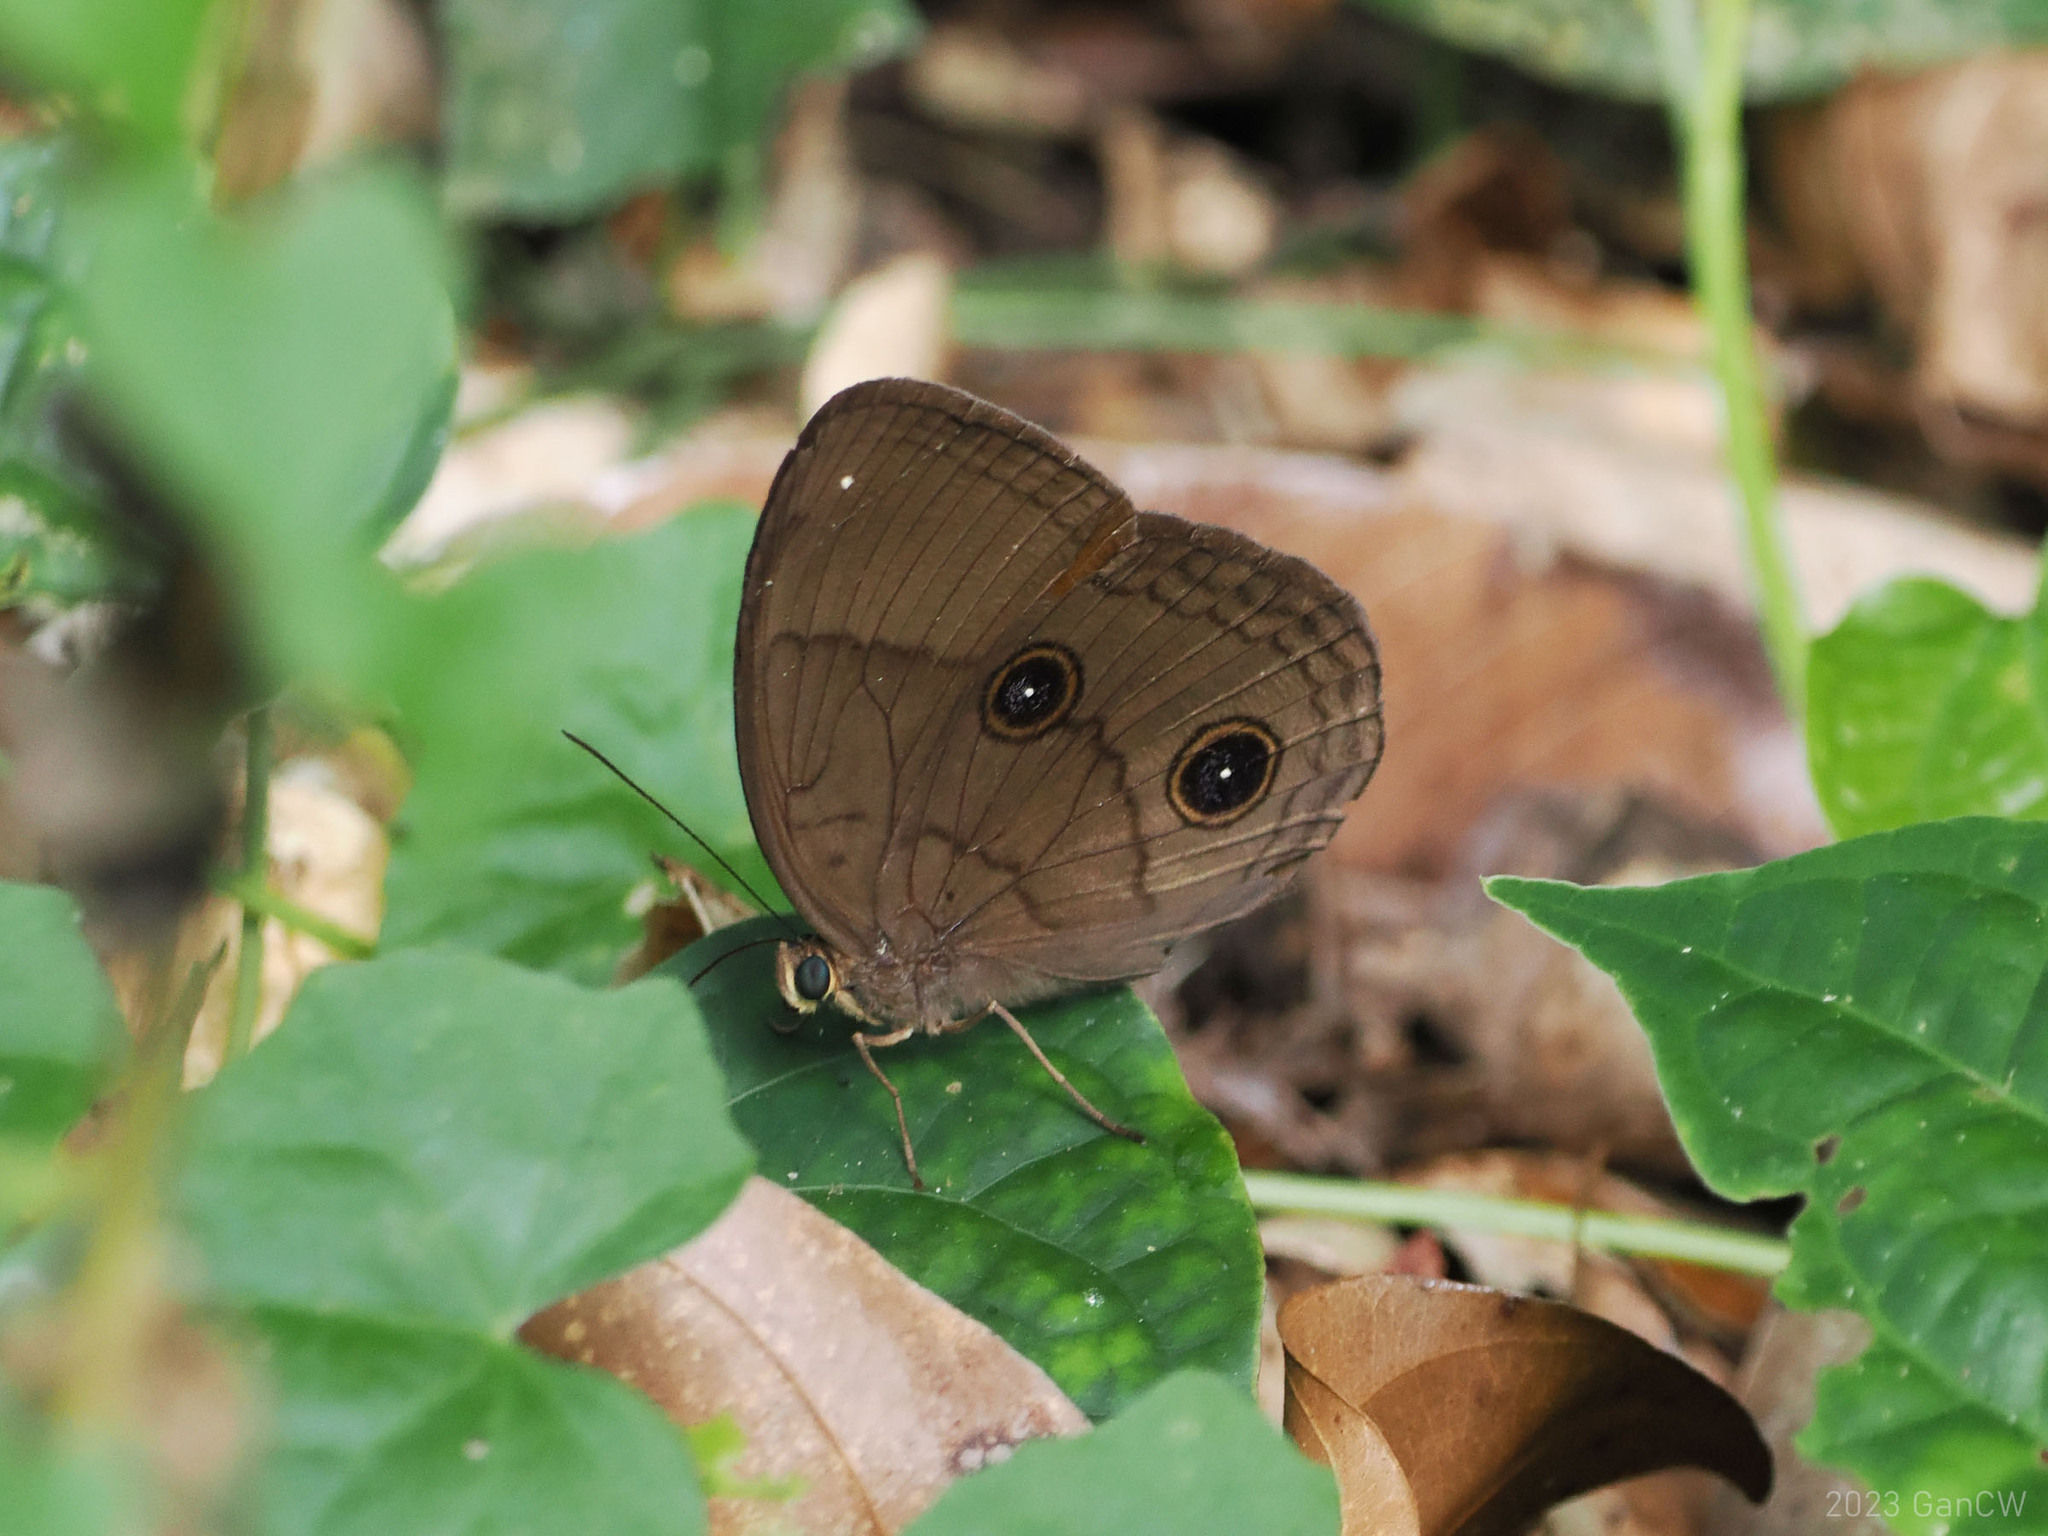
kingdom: Animalia
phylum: Arthropoda
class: Insecta
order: Lepidoptera
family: Nymphalidae
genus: Faunis
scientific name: Faunis phaon
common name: Faun butterfly
